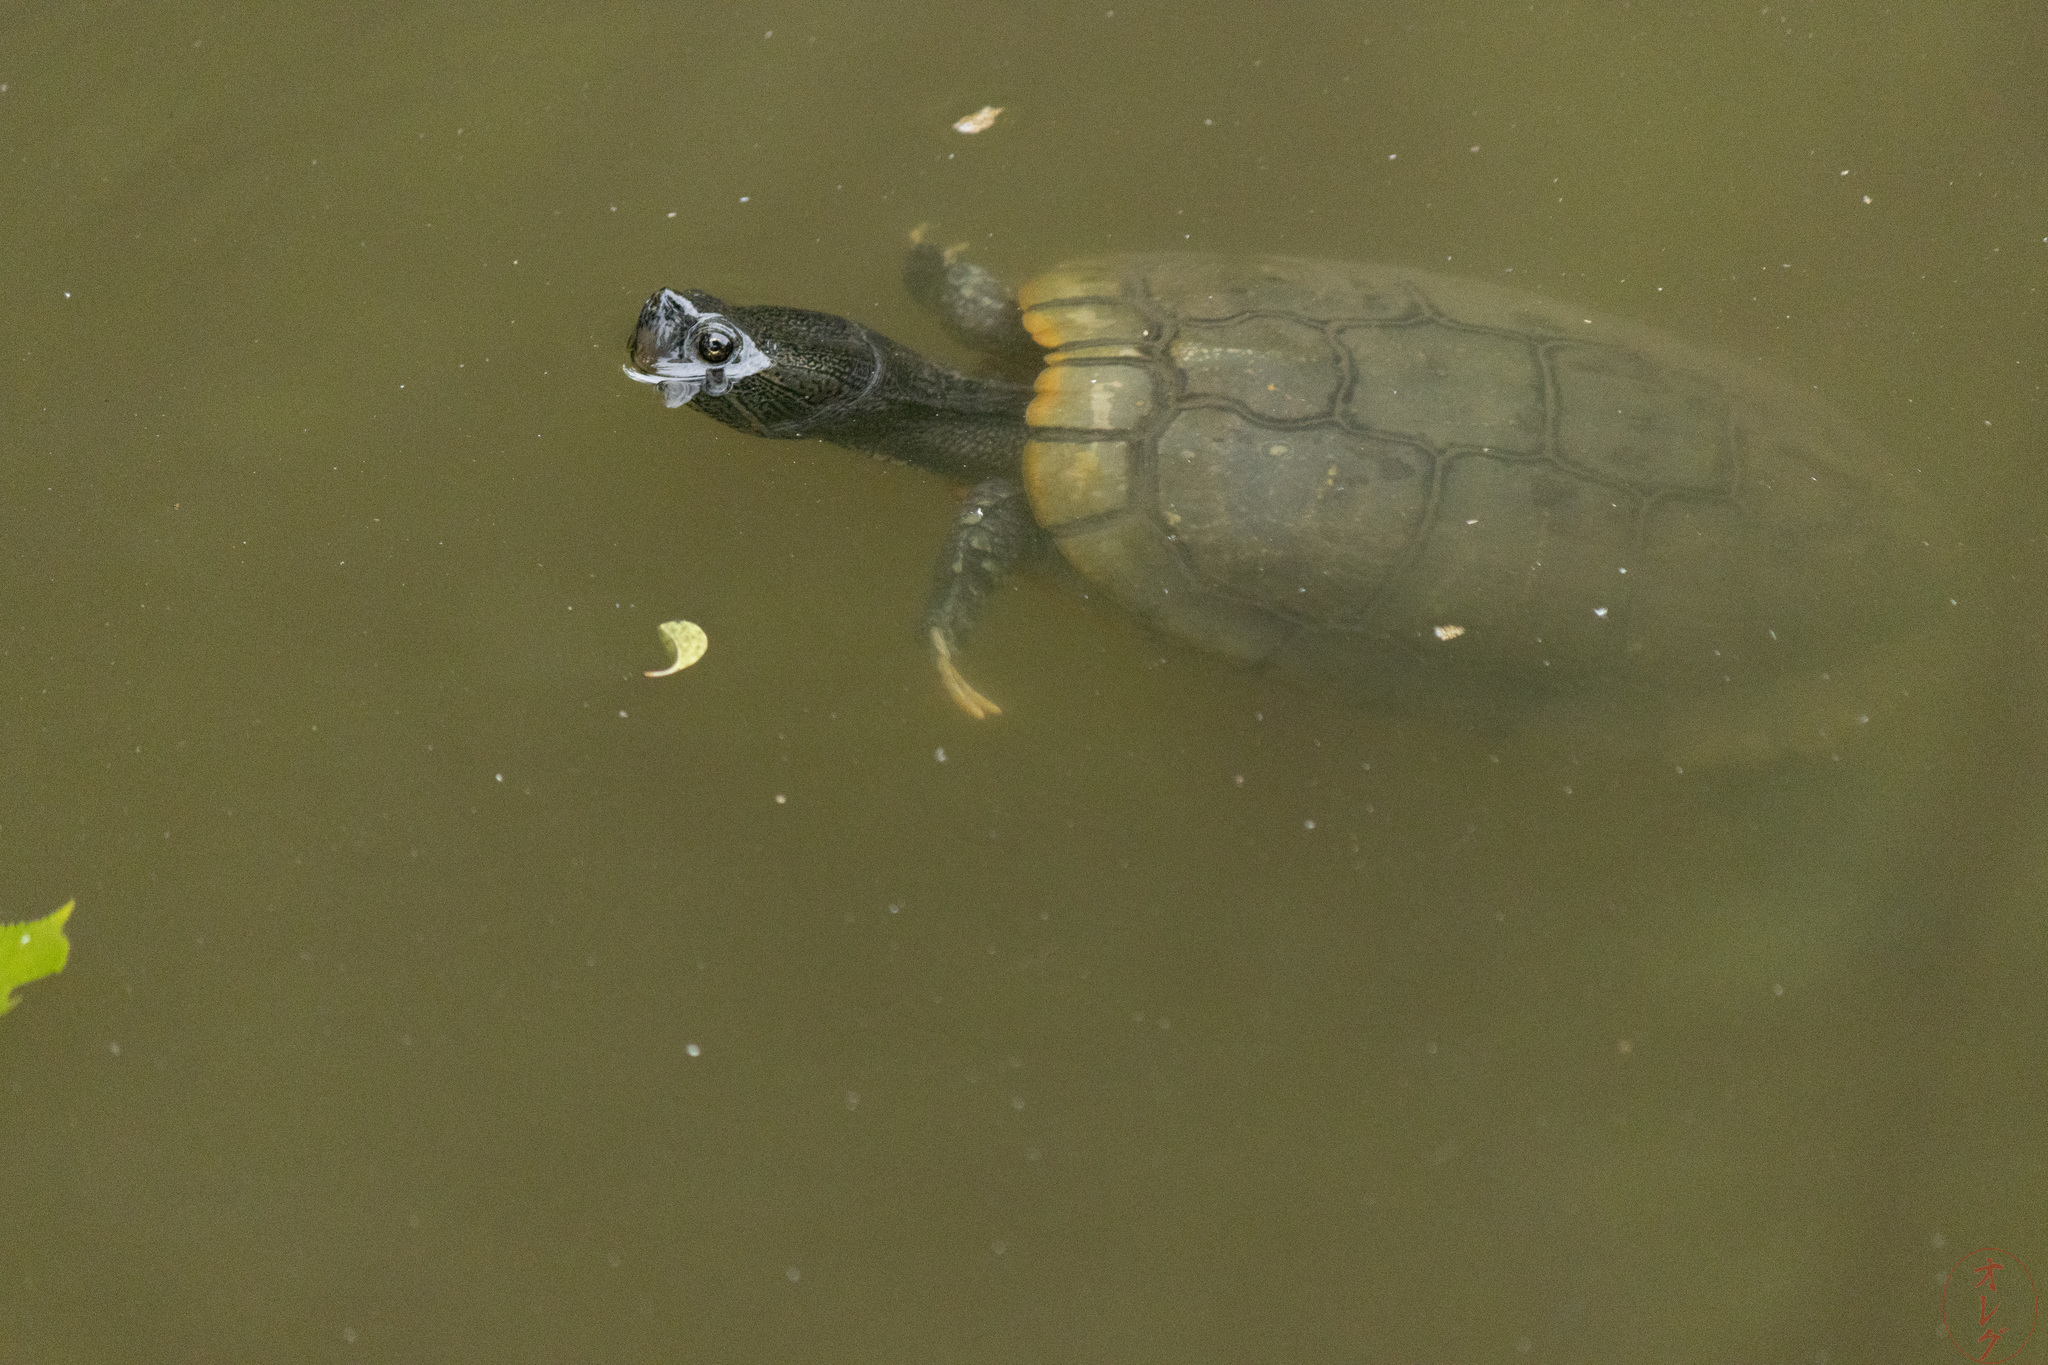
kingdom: Animalia
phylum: Chordata
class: Testudines
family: Emydidae
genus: Trachemys
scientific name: Trachemys scripta
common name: Slider
